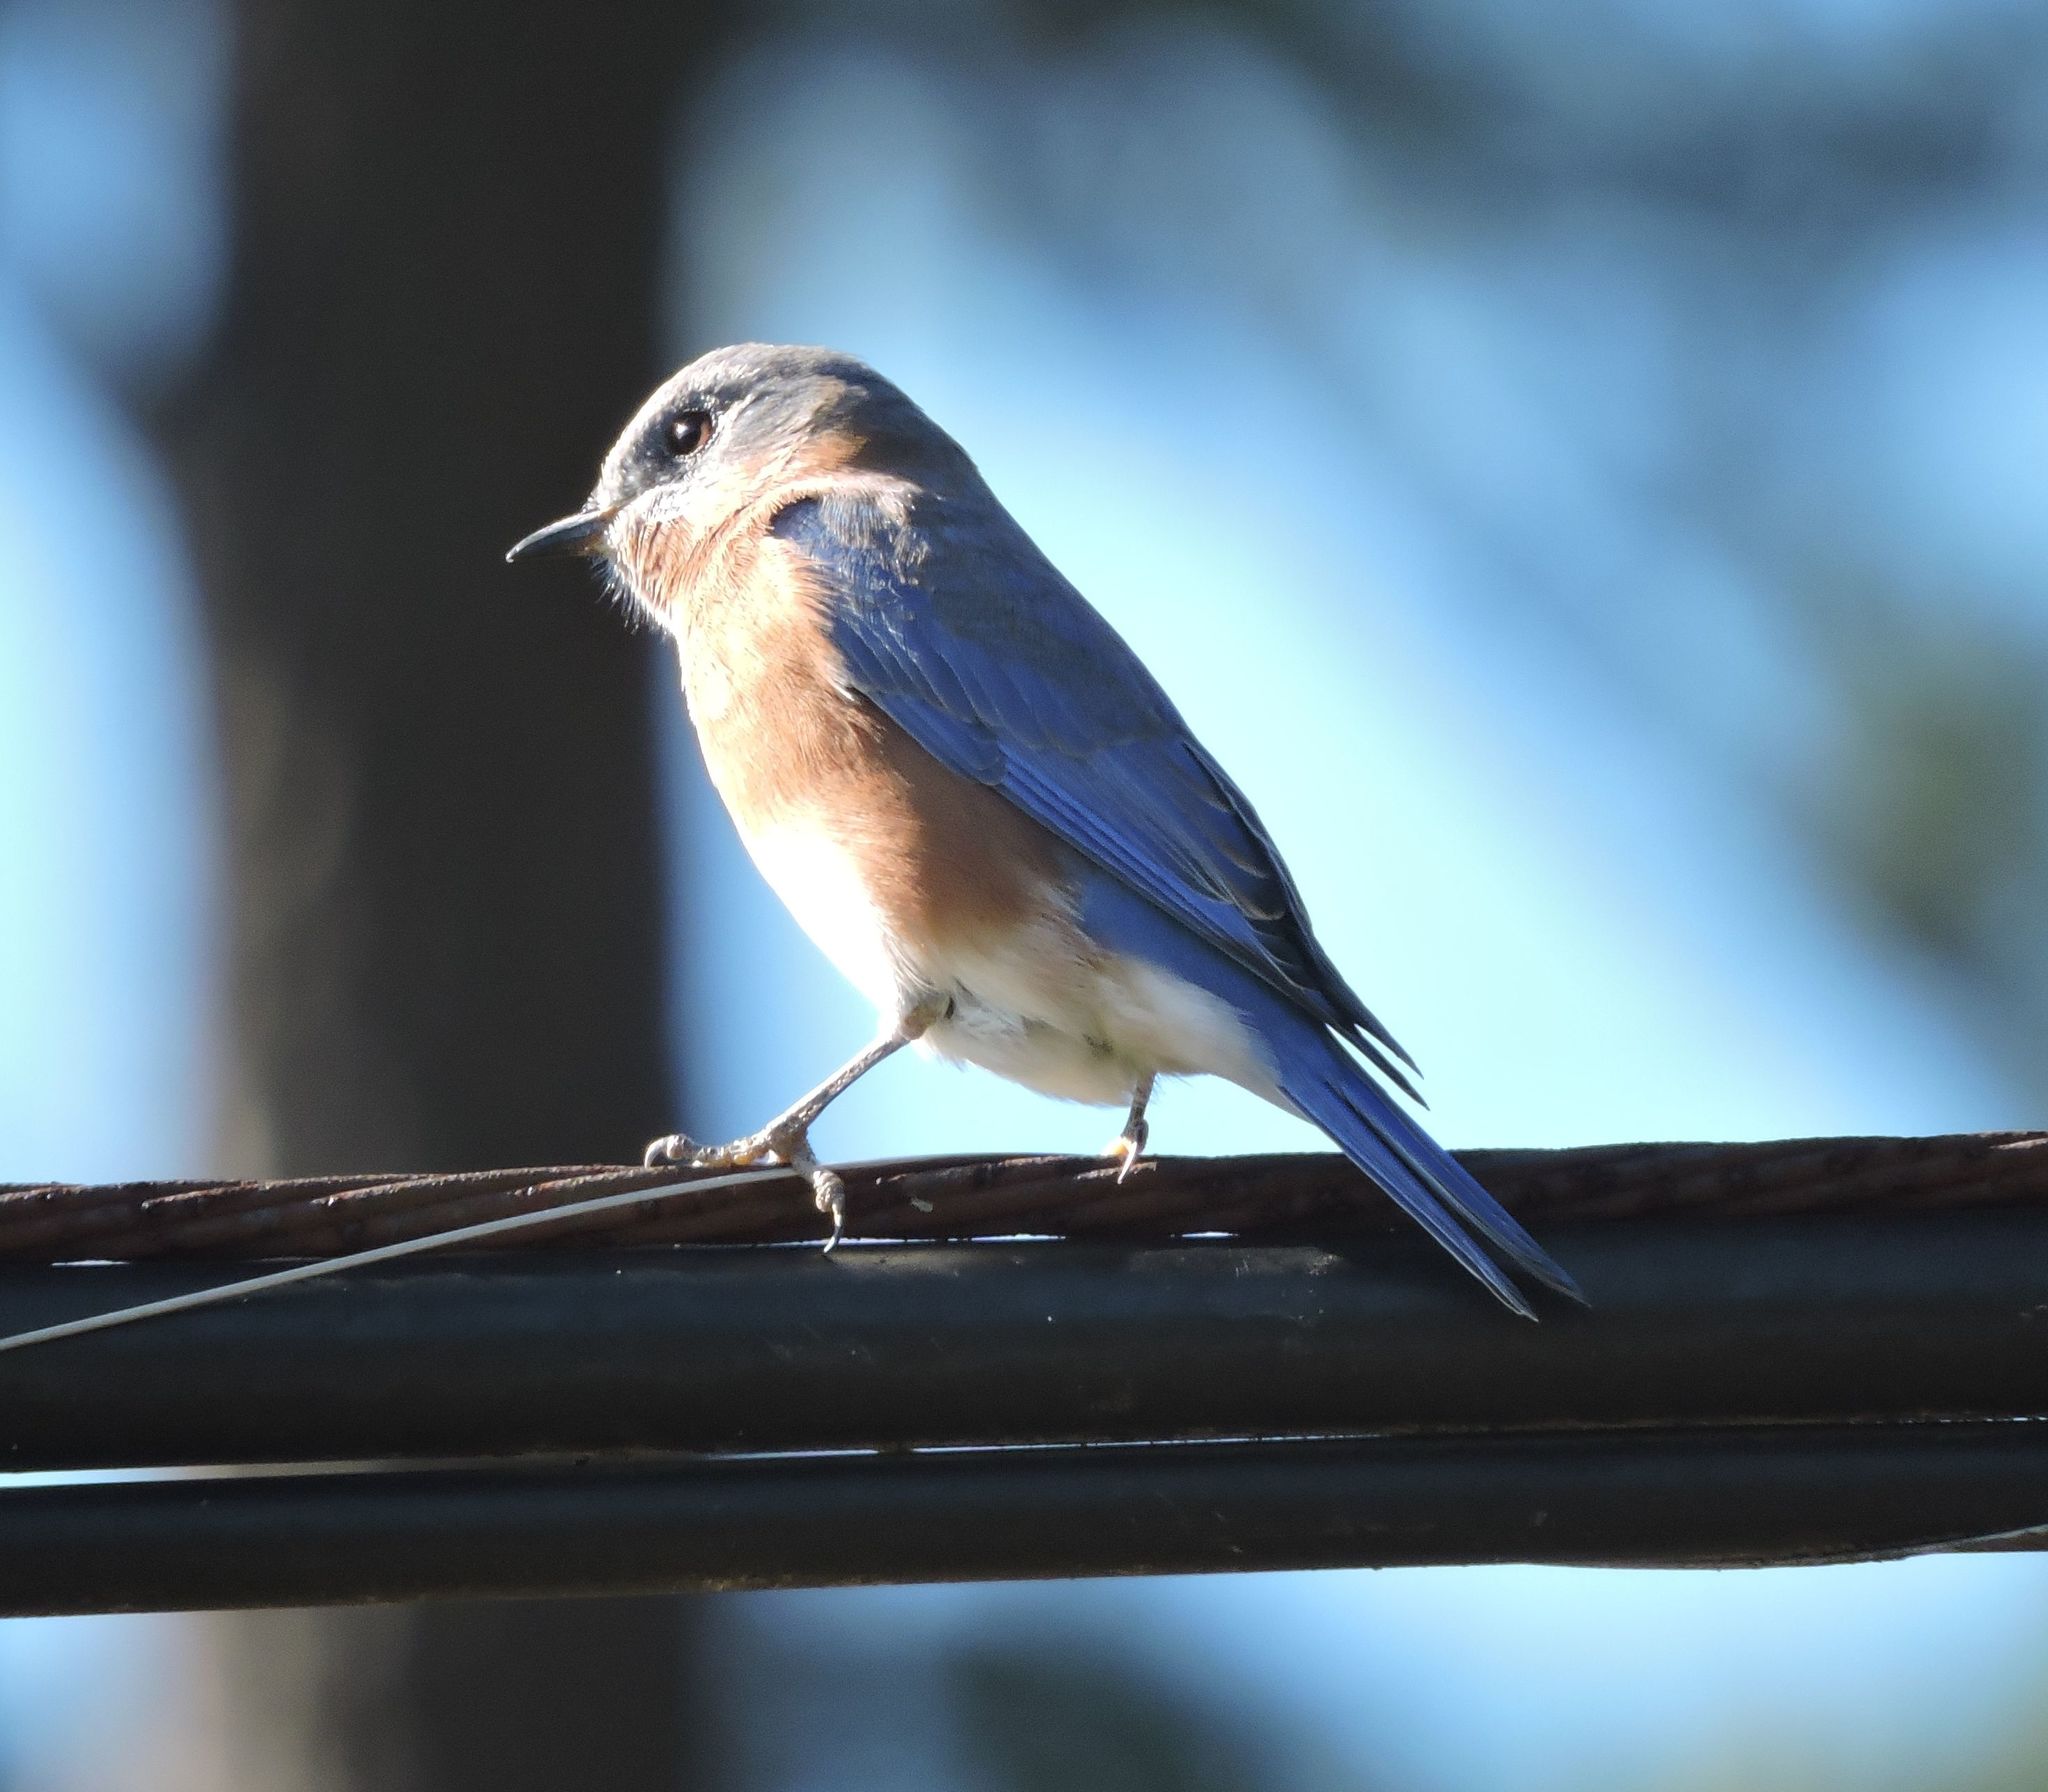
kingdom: Animalia
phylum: Chordata
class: Aves
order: Passeriformes
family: Turdidae
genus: Sialia
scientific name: Sialia sialis
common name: Eastern bluebird
